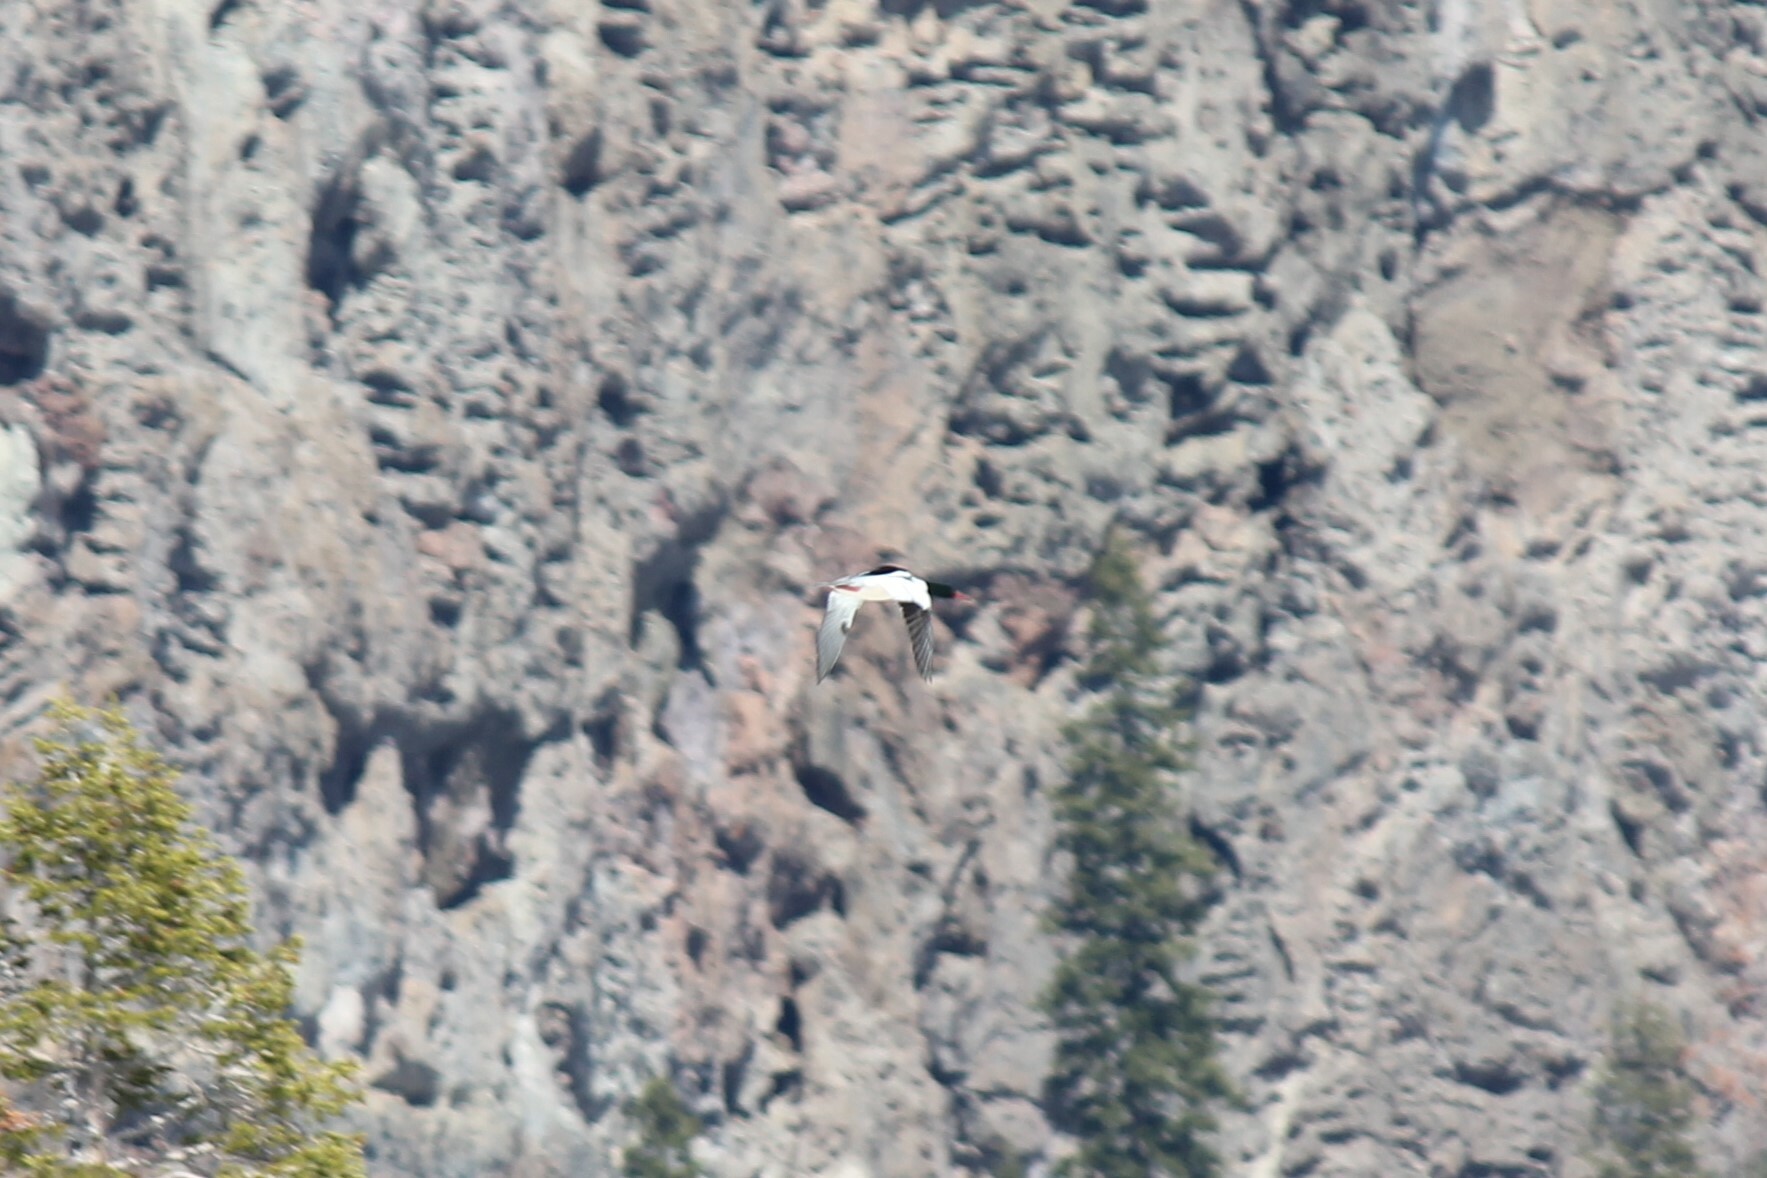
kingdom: Animalia
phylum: Chordata
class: Aves
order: Anseriformes
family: Anatidae
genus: Mergus
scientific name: Mergus merganser
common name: Common merganser
